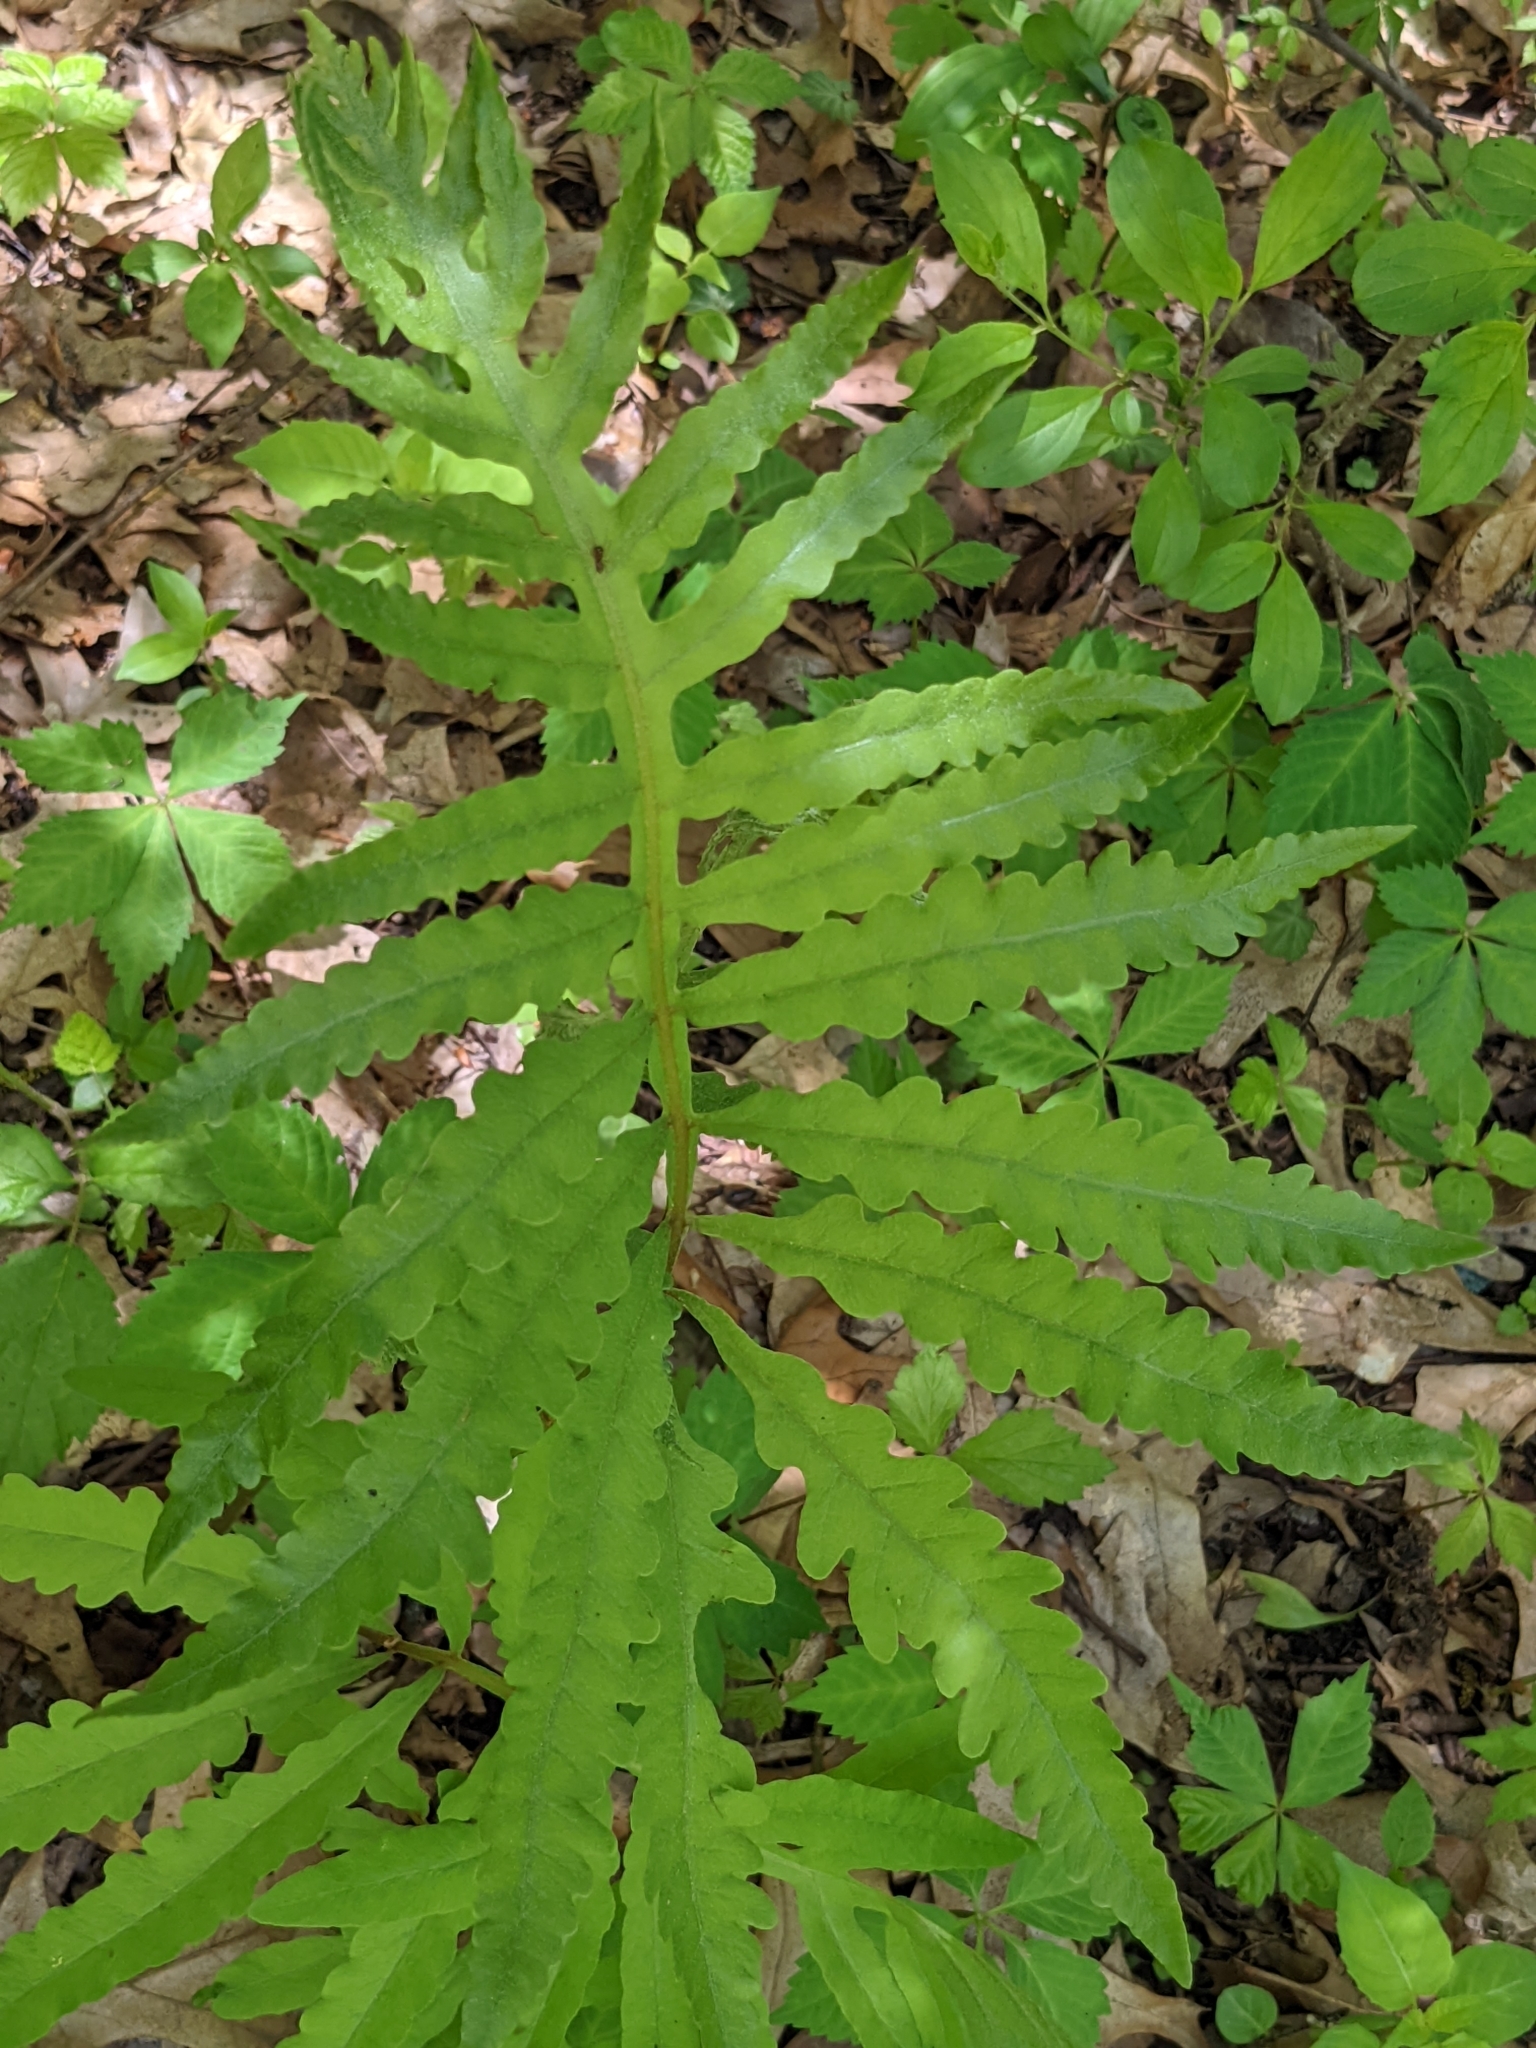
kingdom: Plantae
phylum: Tracheophyta
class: Polypodiopsida
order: Polypodiales
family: Onocleaceae
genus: Onoclea
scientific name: Onoclea sensibilis
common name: Sensitive fern
